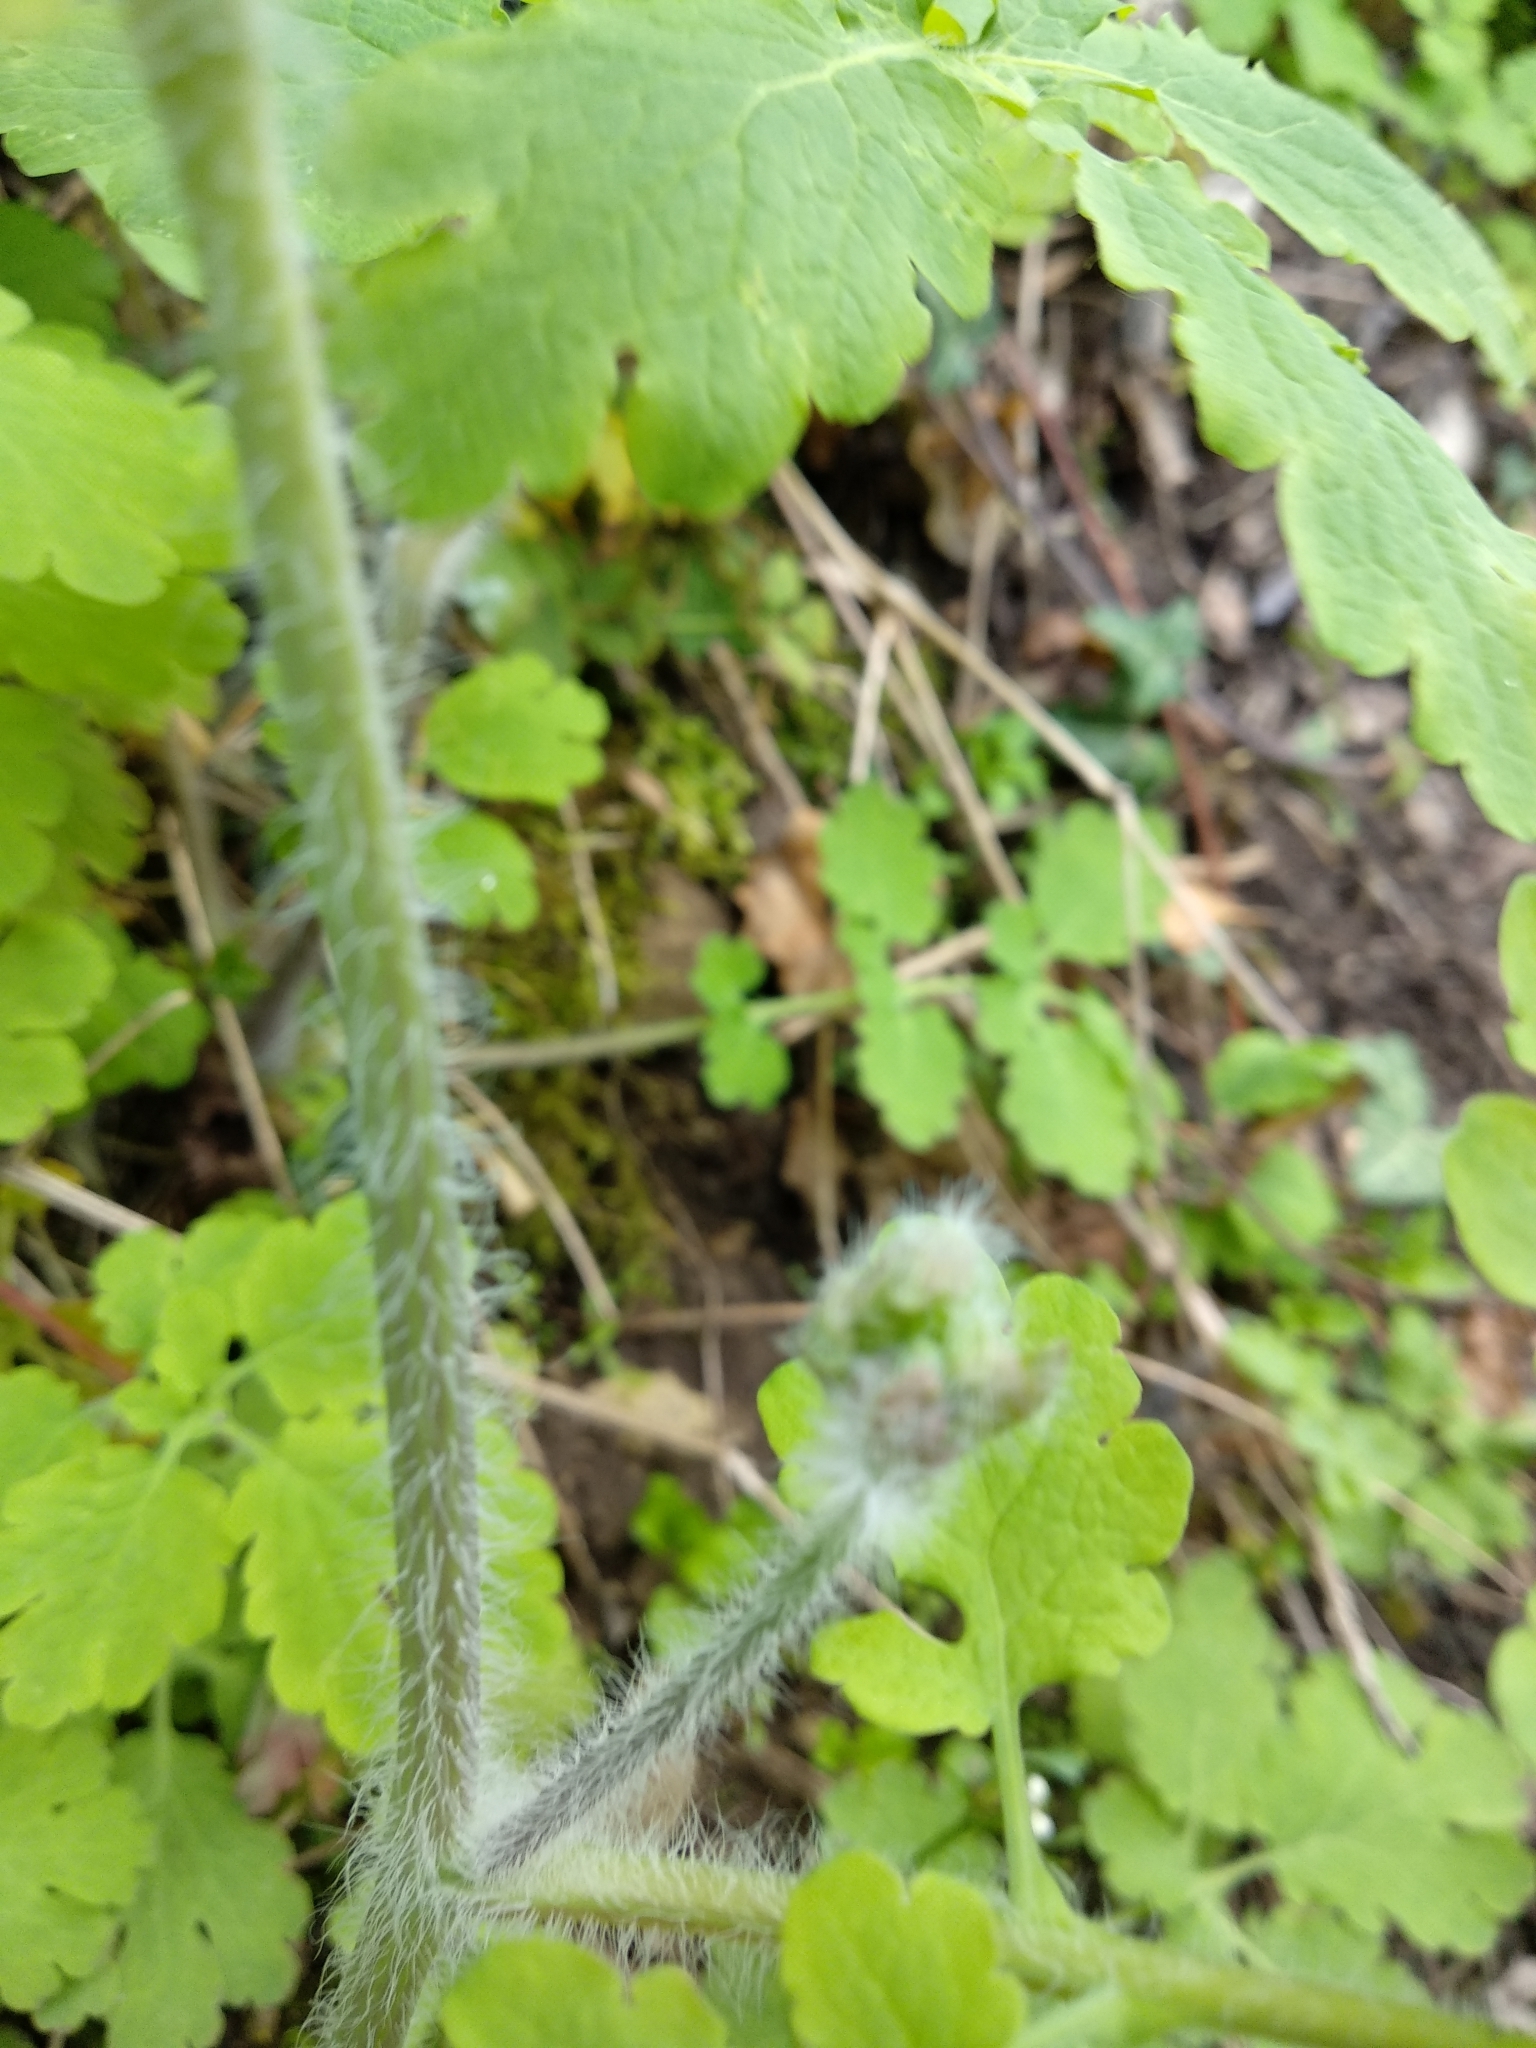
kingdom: Plantae
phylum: Tracheophyta
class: Magnoliopsida
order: Ranunculales
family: Papaveraceae
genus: Chelidonium
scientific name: Chelidonium majus
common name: Greater celandine
